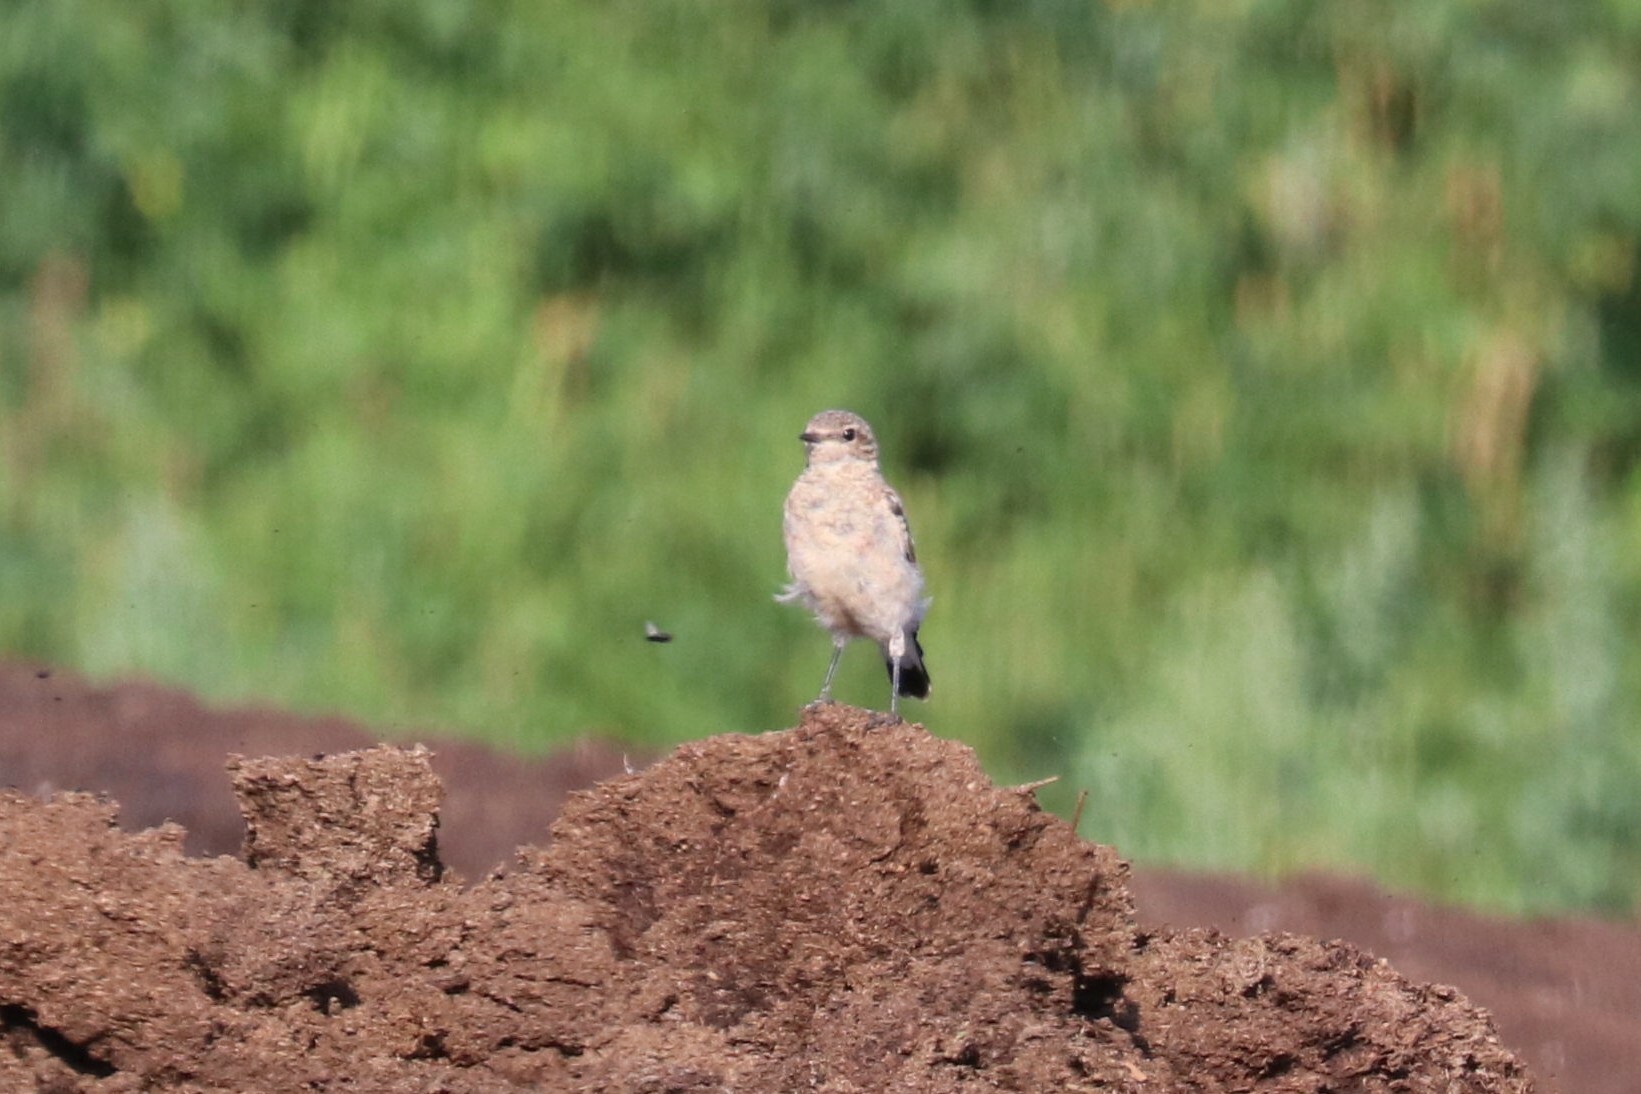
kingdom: Animalia
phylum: Chordata
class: Aves
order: Passeriformes
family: Muscicapidae
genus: Oenanthe
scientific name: Oenanthe oenanthe
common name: Northern wheatear
